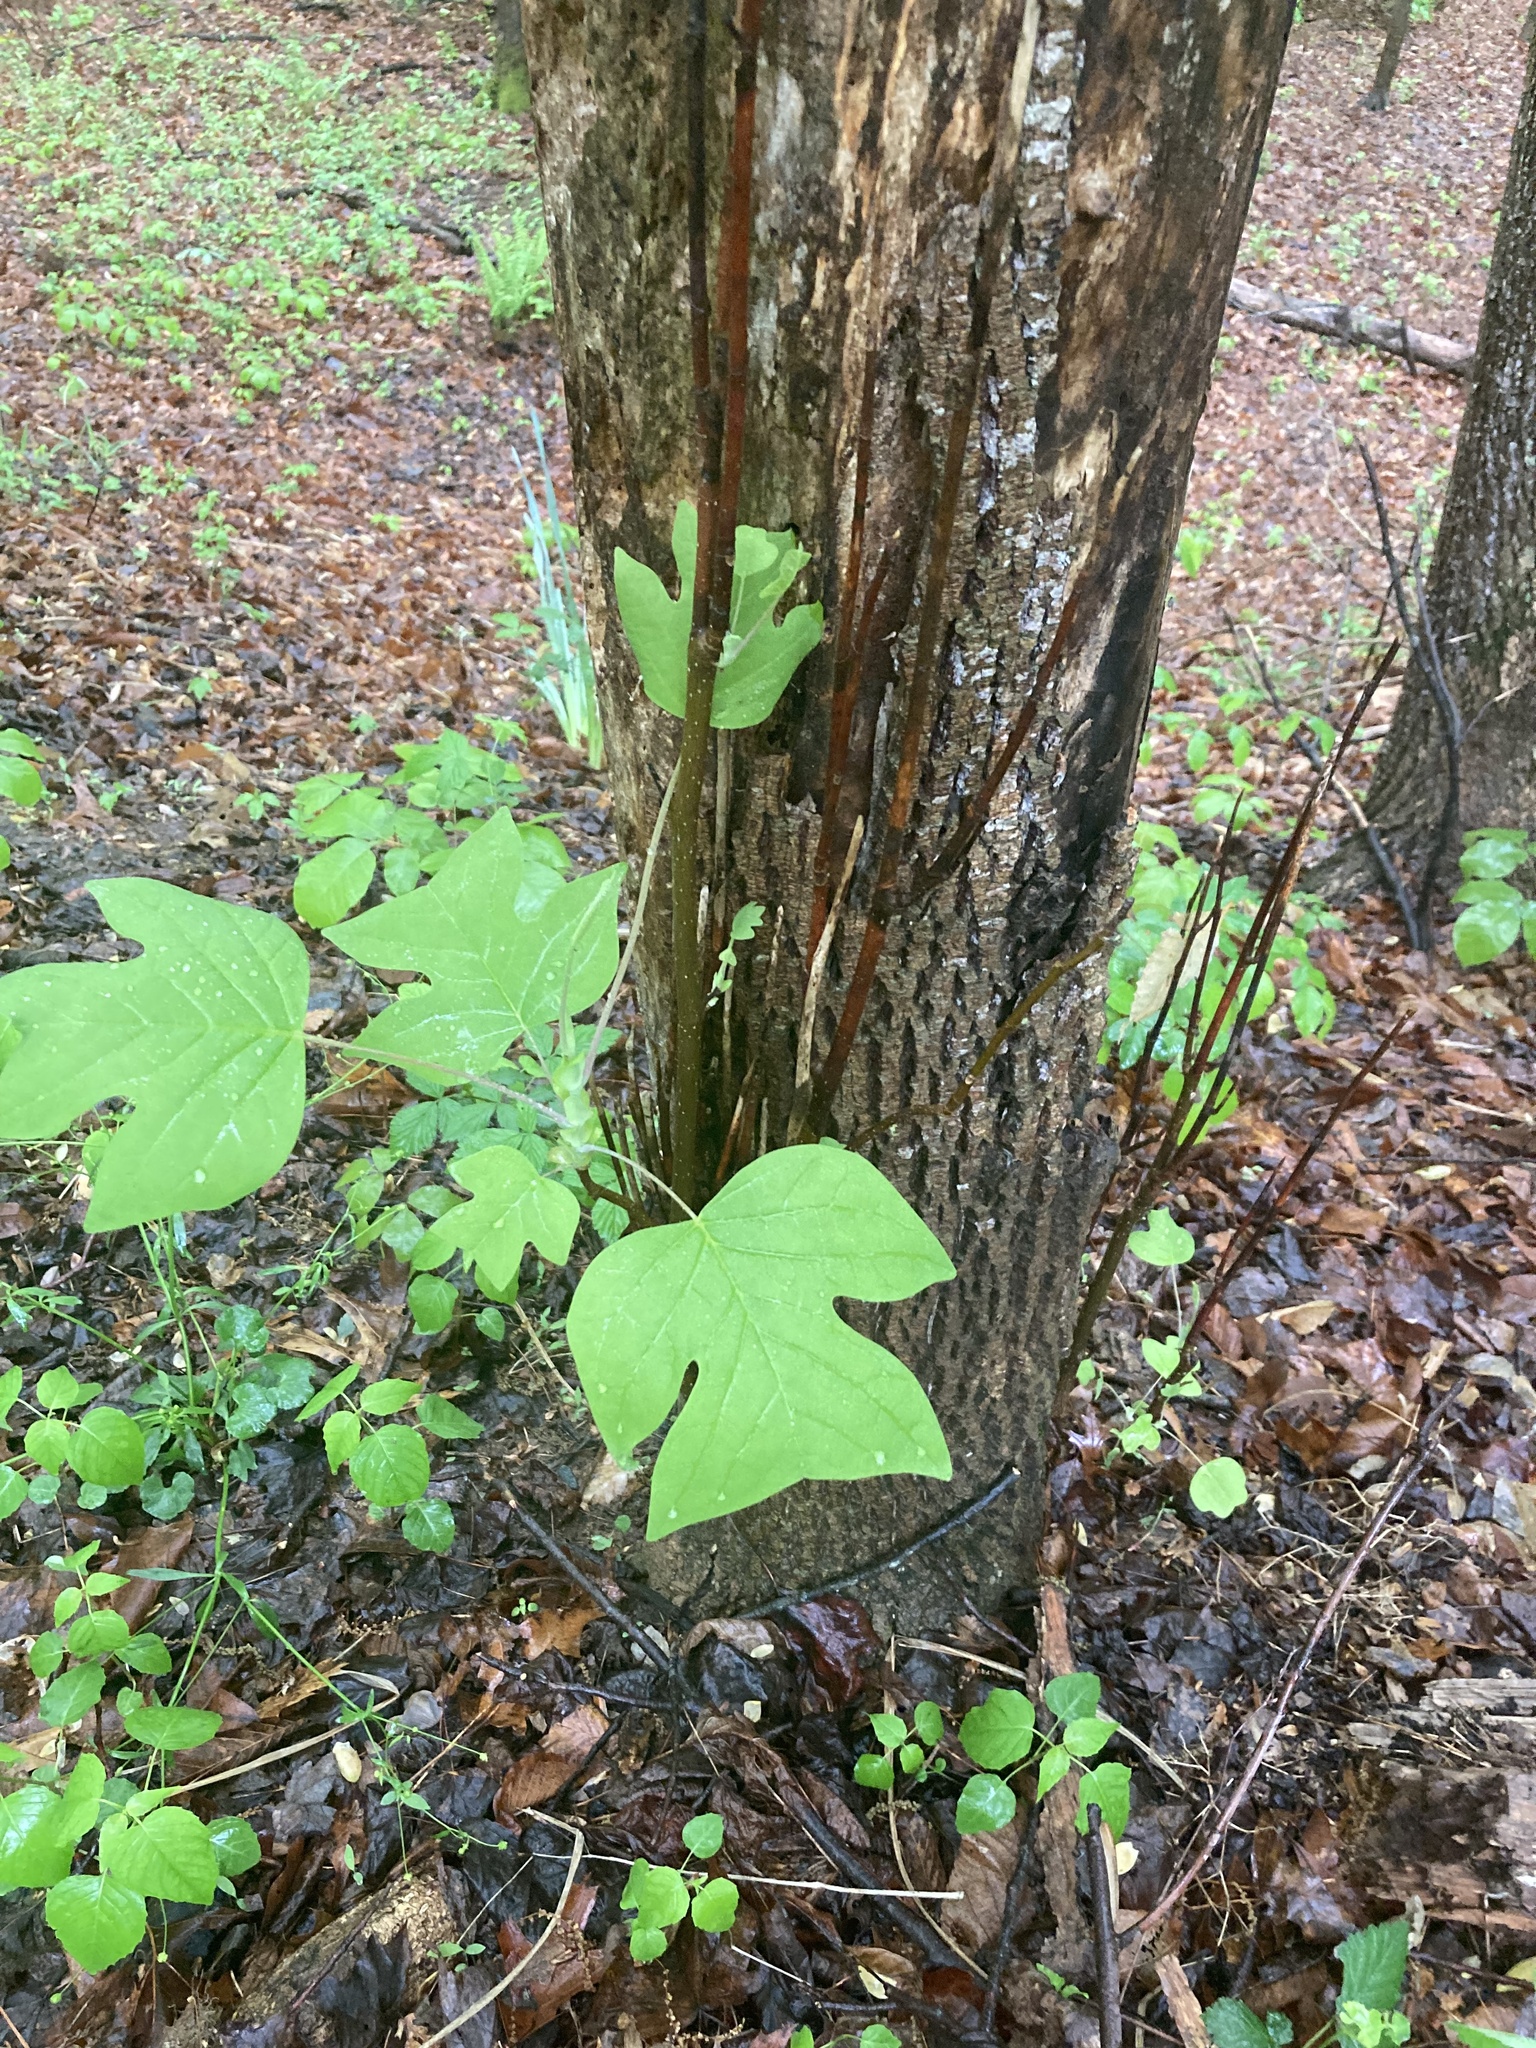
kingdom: Plantae
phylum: Tracheophyta
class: Magnoliopsida
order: Magnoliales
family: Magnoliaceae
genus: Liriodendron
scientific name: Liriodendron tulipifera
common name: Tulip tree
